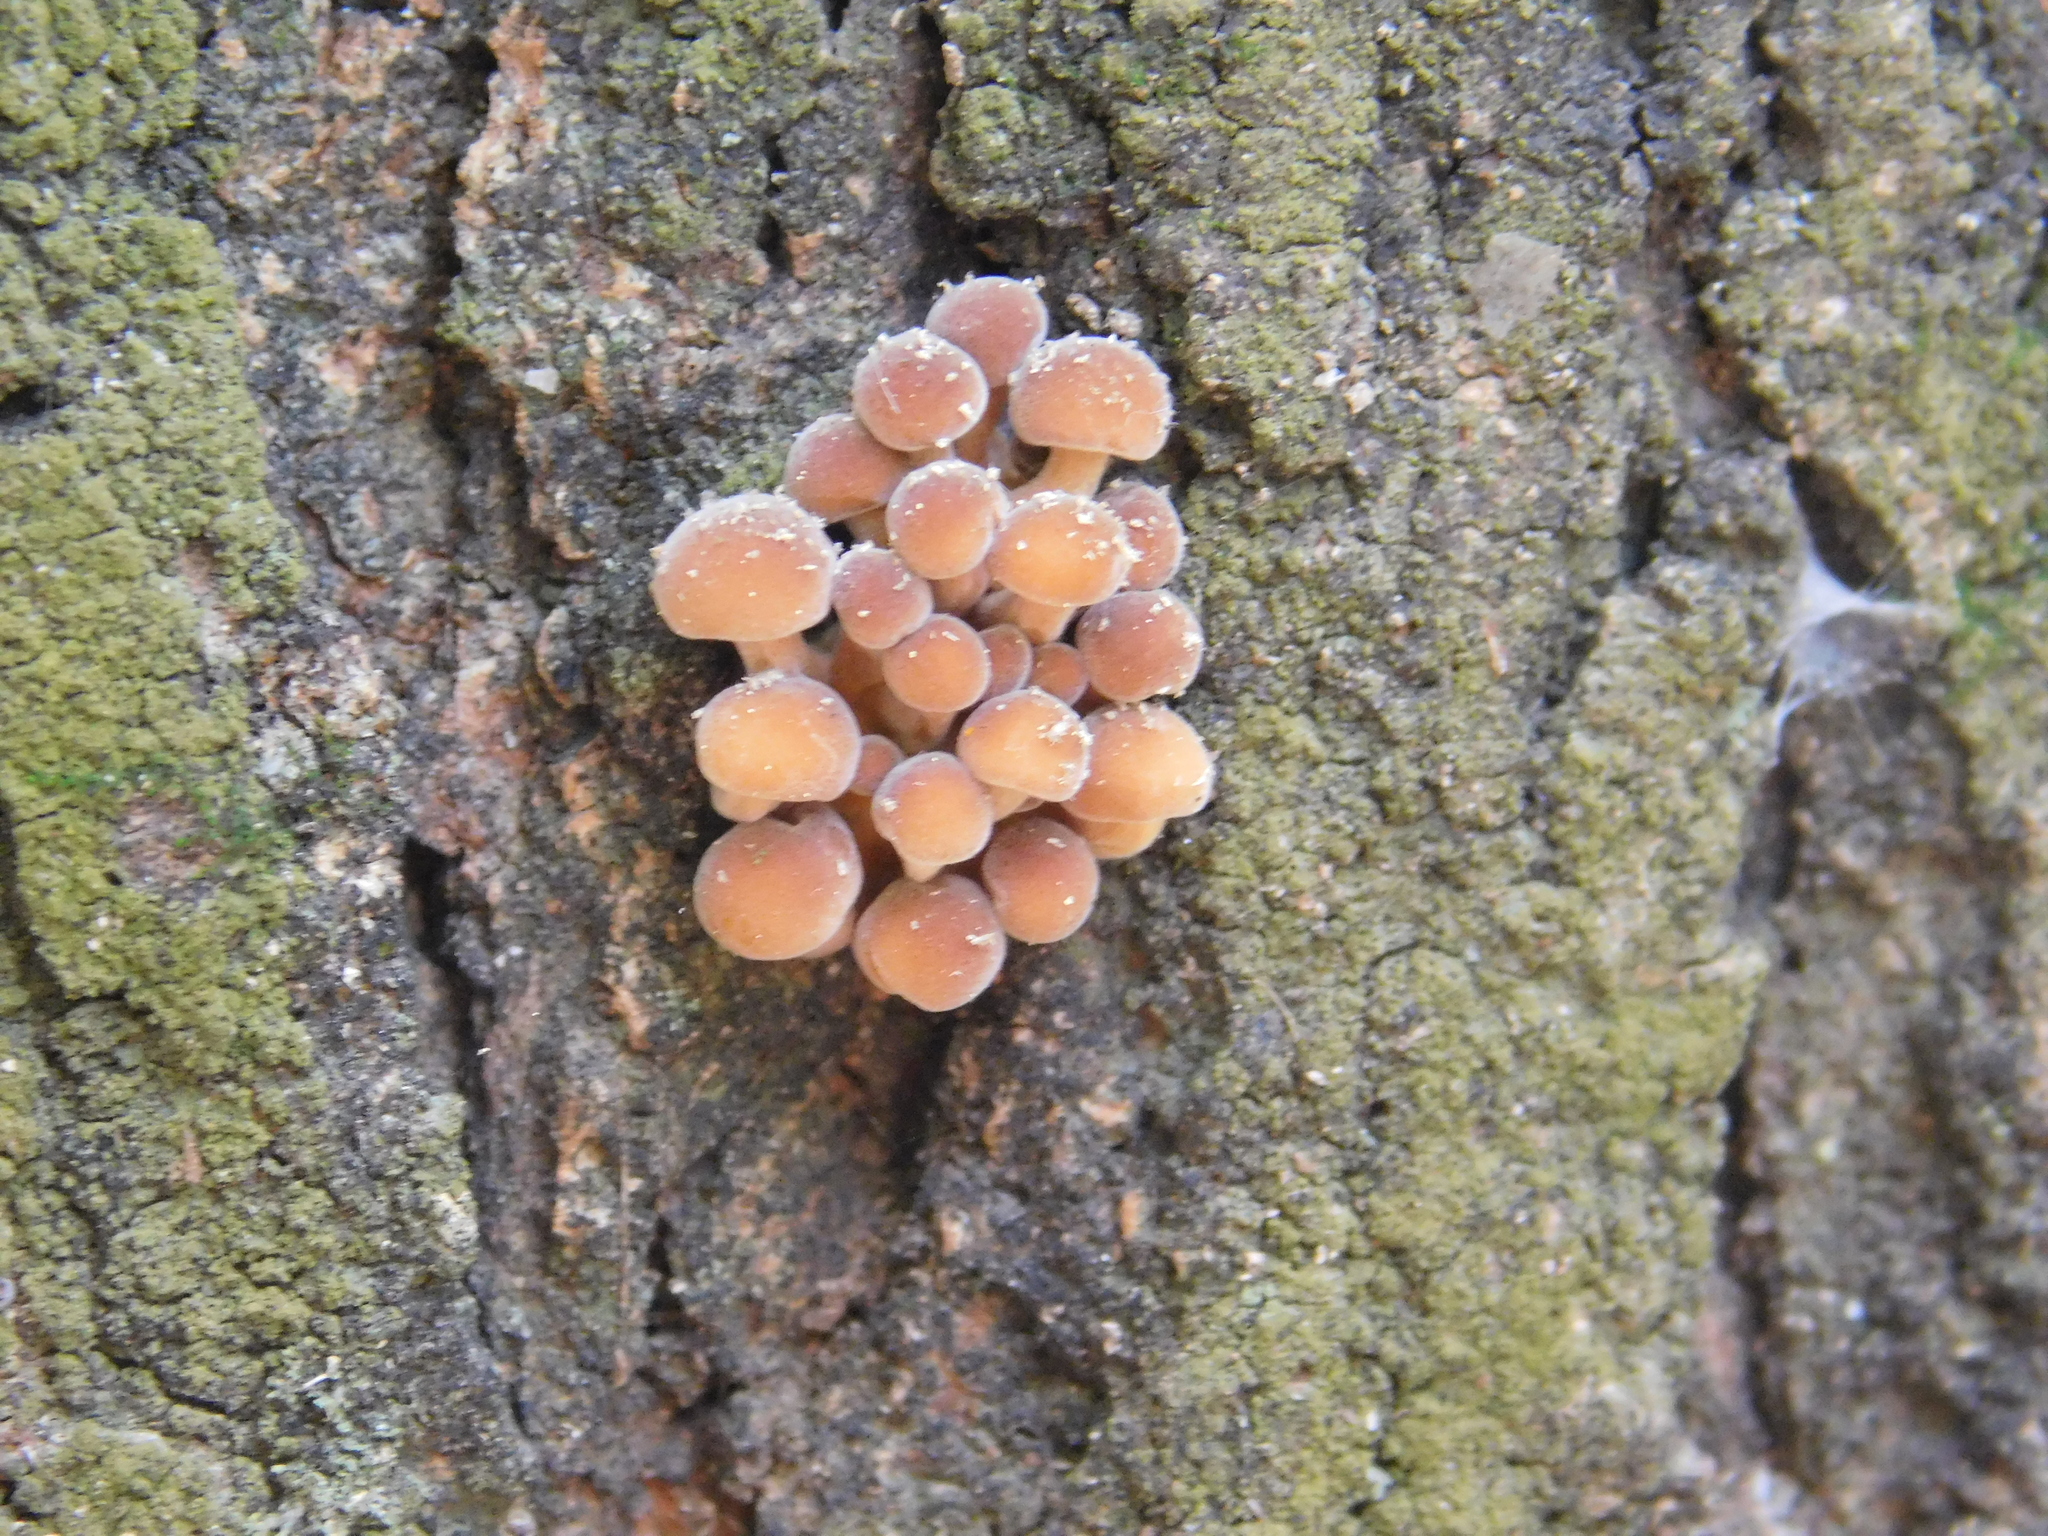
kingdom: Fungi
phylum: Basidiomycota
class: Agaricomycetes
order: Agaricales
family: Physalacriaceae
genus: Flammulina
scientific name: Flammulina velutipes
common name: Velvet shank
